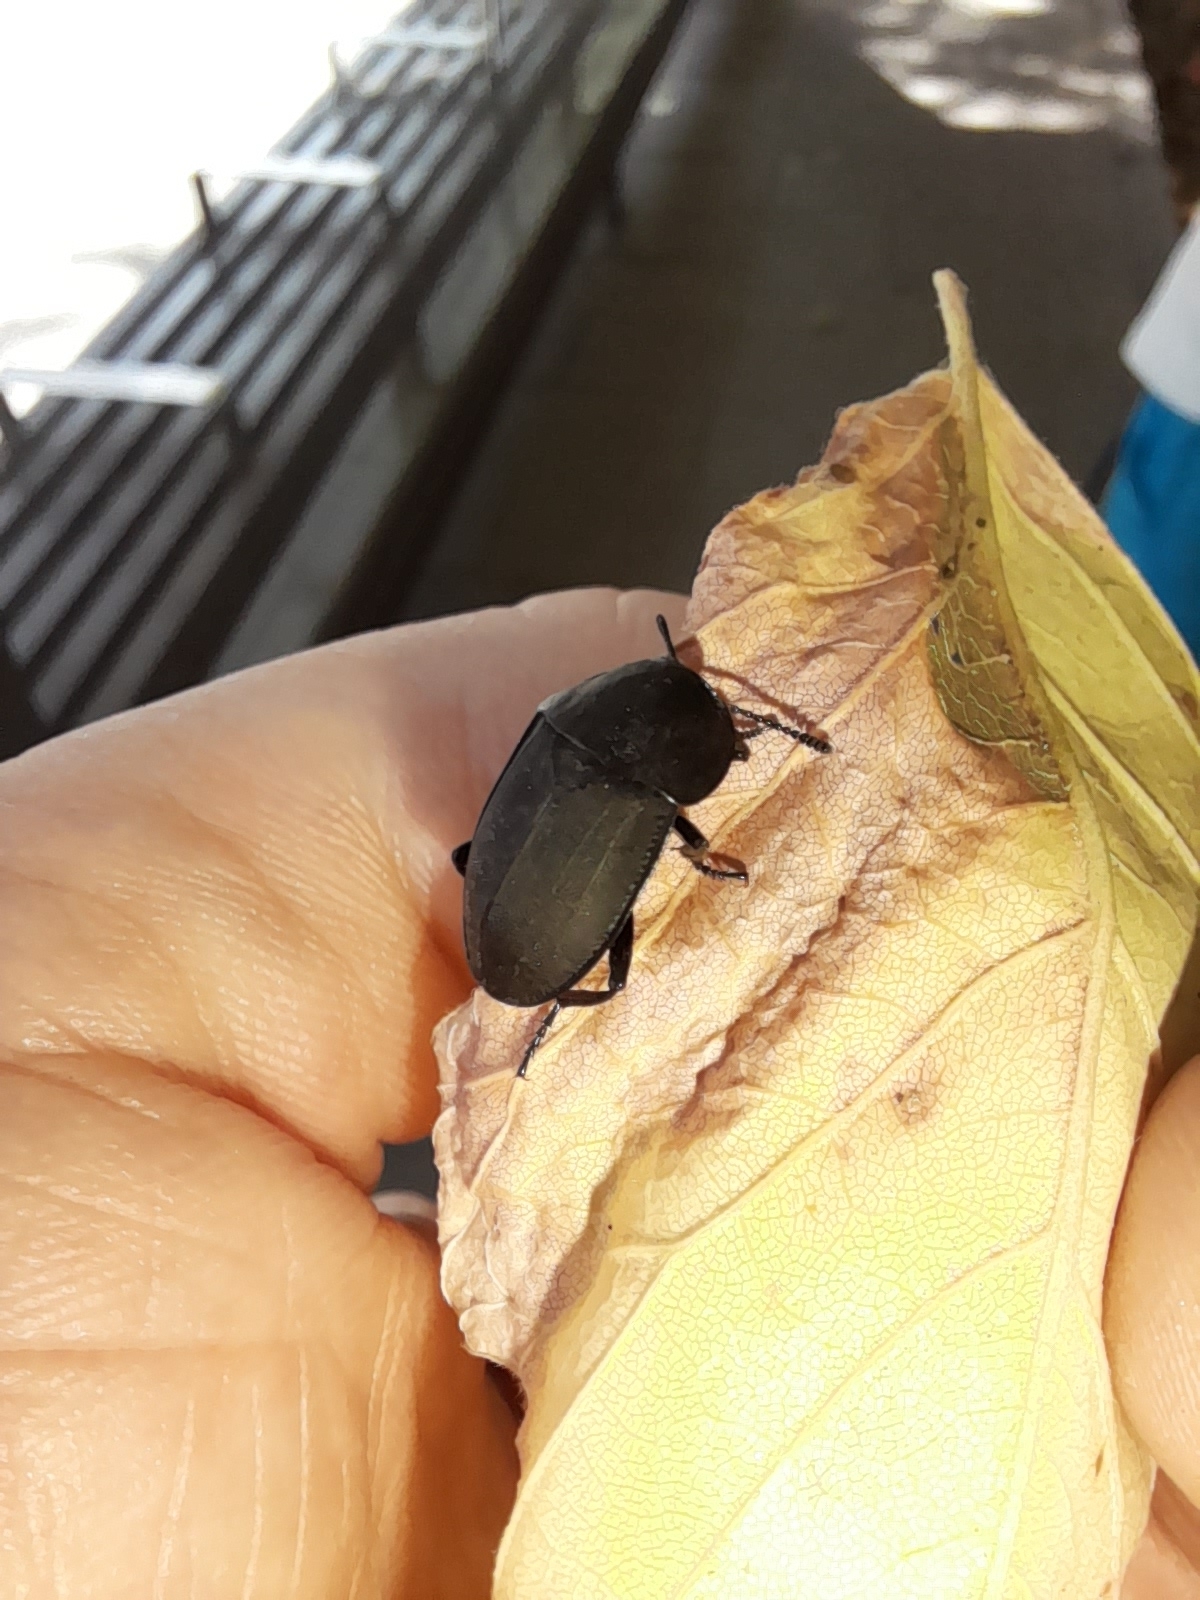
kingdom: Animalia
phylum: Arthropoda
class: Insecta
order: Coleoptera
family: Staphylinidae
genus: Silpha
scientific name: Silpha obscura
